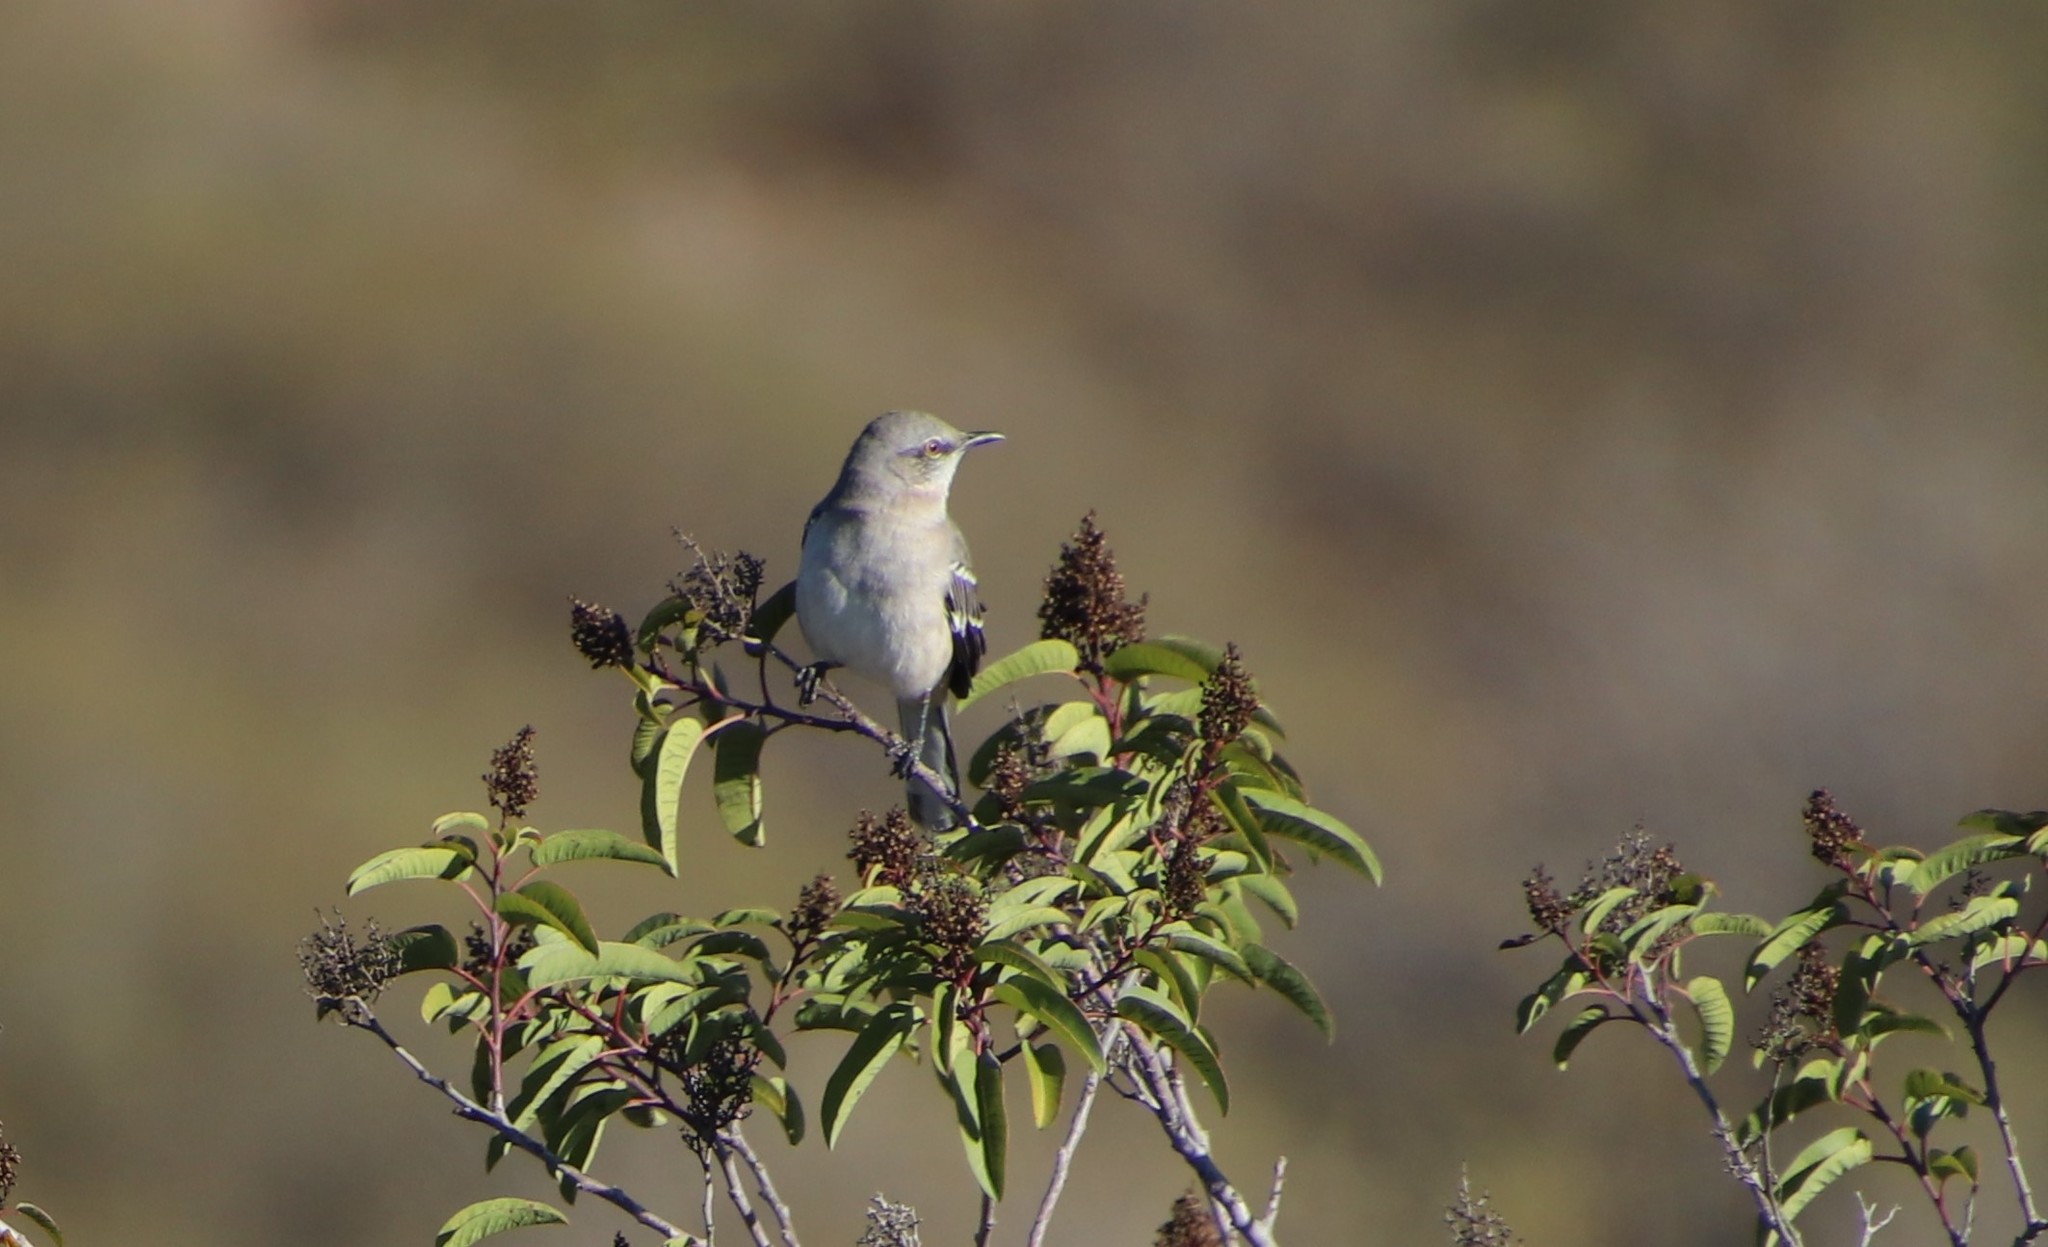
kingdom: Animalia
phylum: Chordata
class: Aves
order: Passeriformes
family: Mimidae
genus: Mimus
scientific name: Mimus polyglottos
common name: Northern mockingbird
